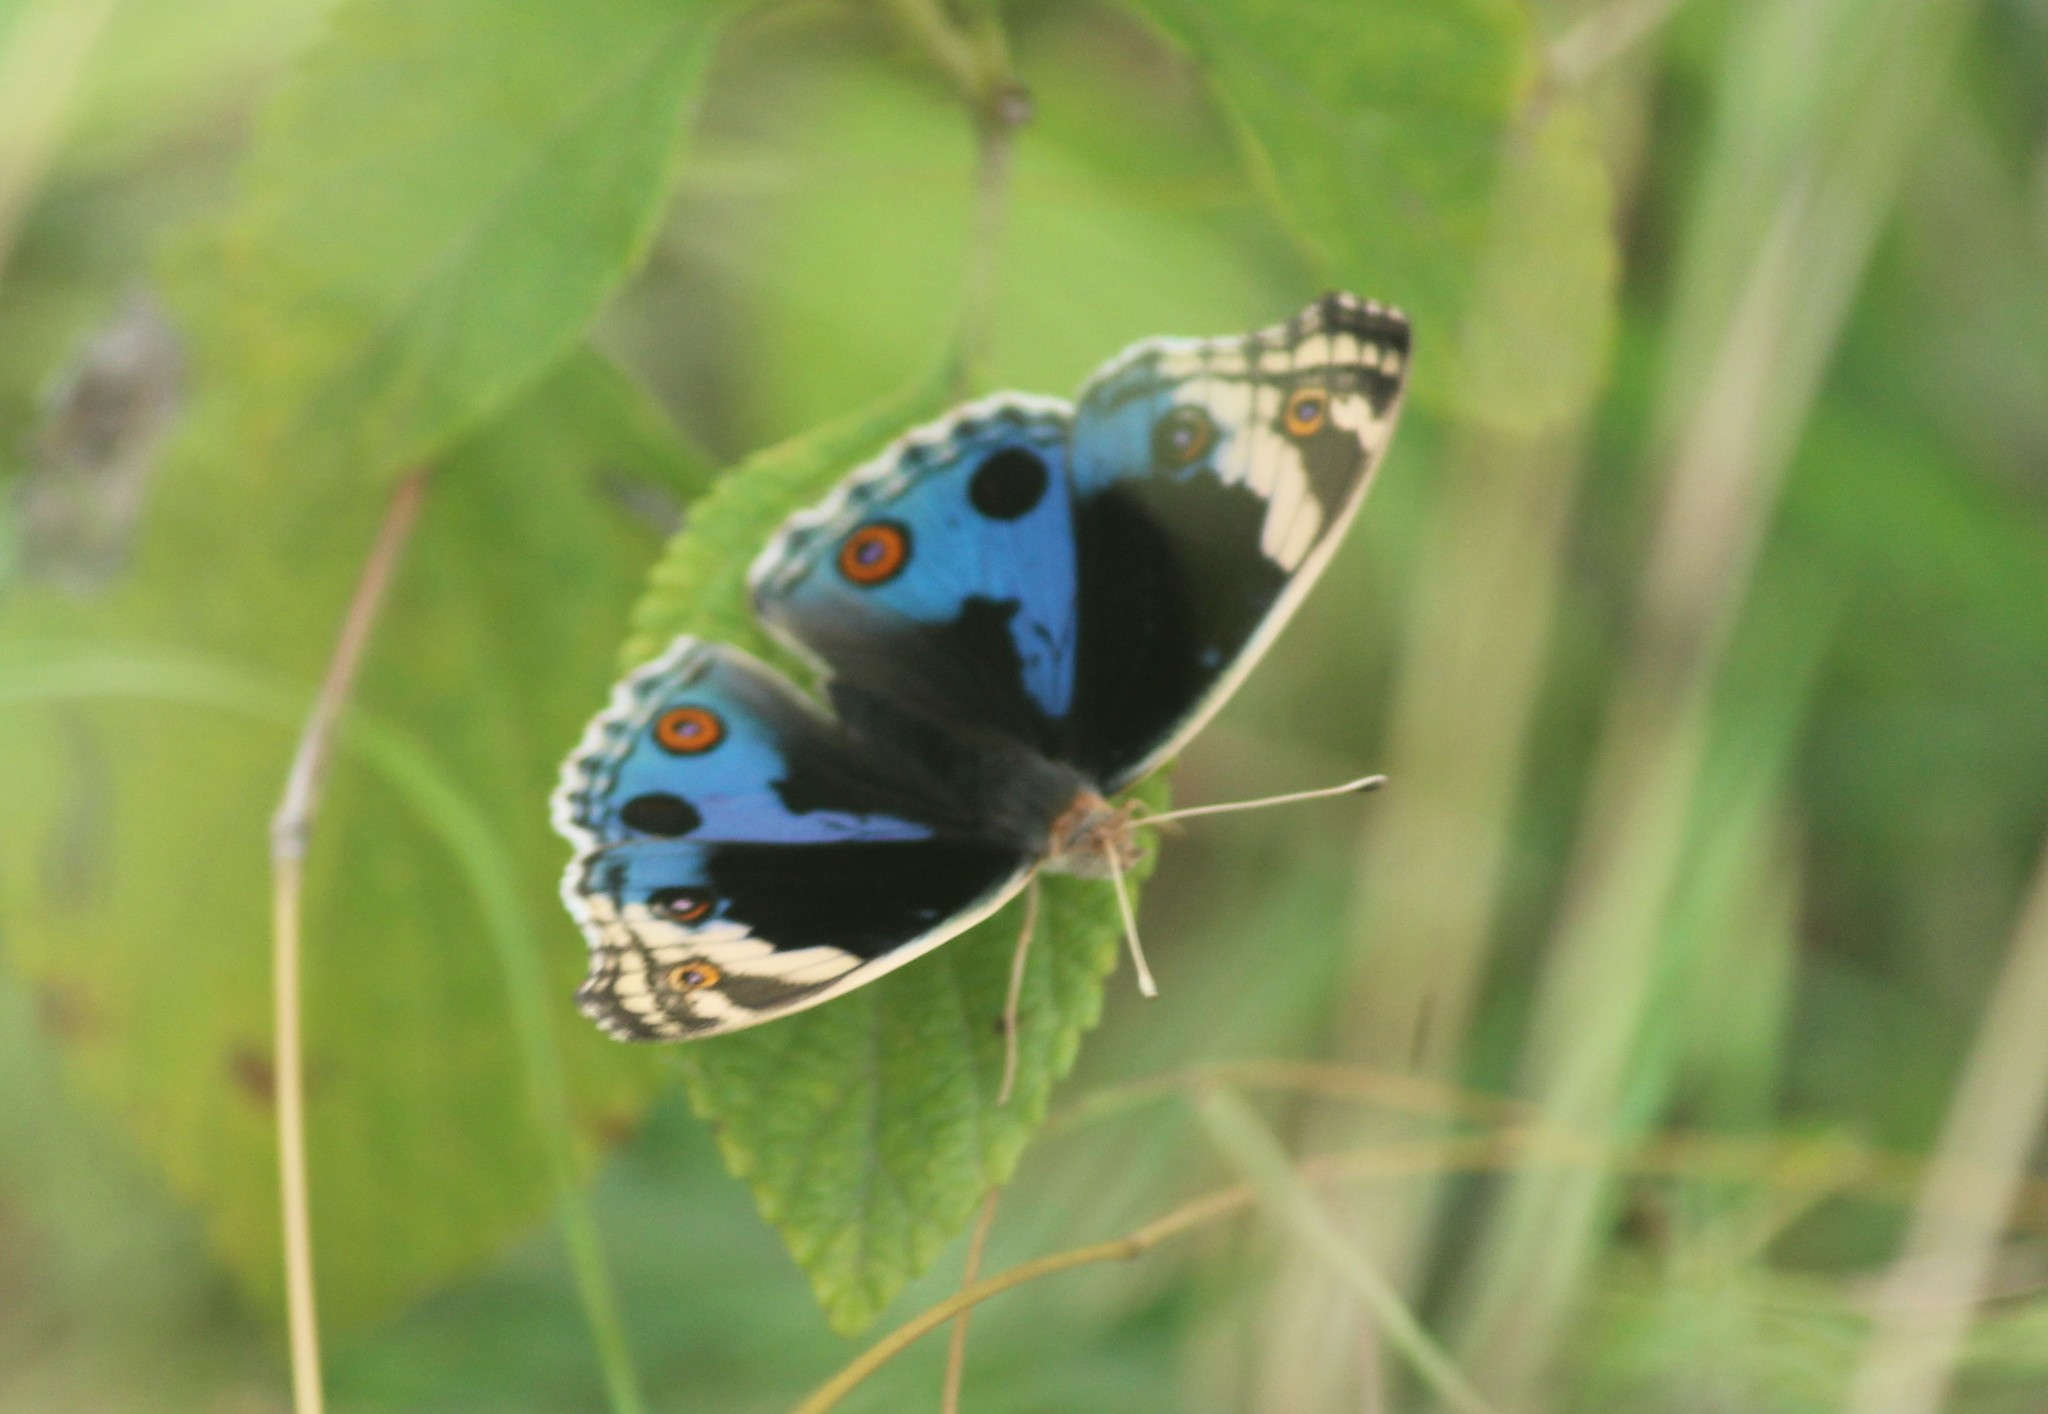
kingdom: Animalia
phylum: Arthropoda
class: Insecta
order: Lepidoptera
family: Nymphalidae
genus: Junonia
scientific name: Junonia orithya
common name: Blue pansy
